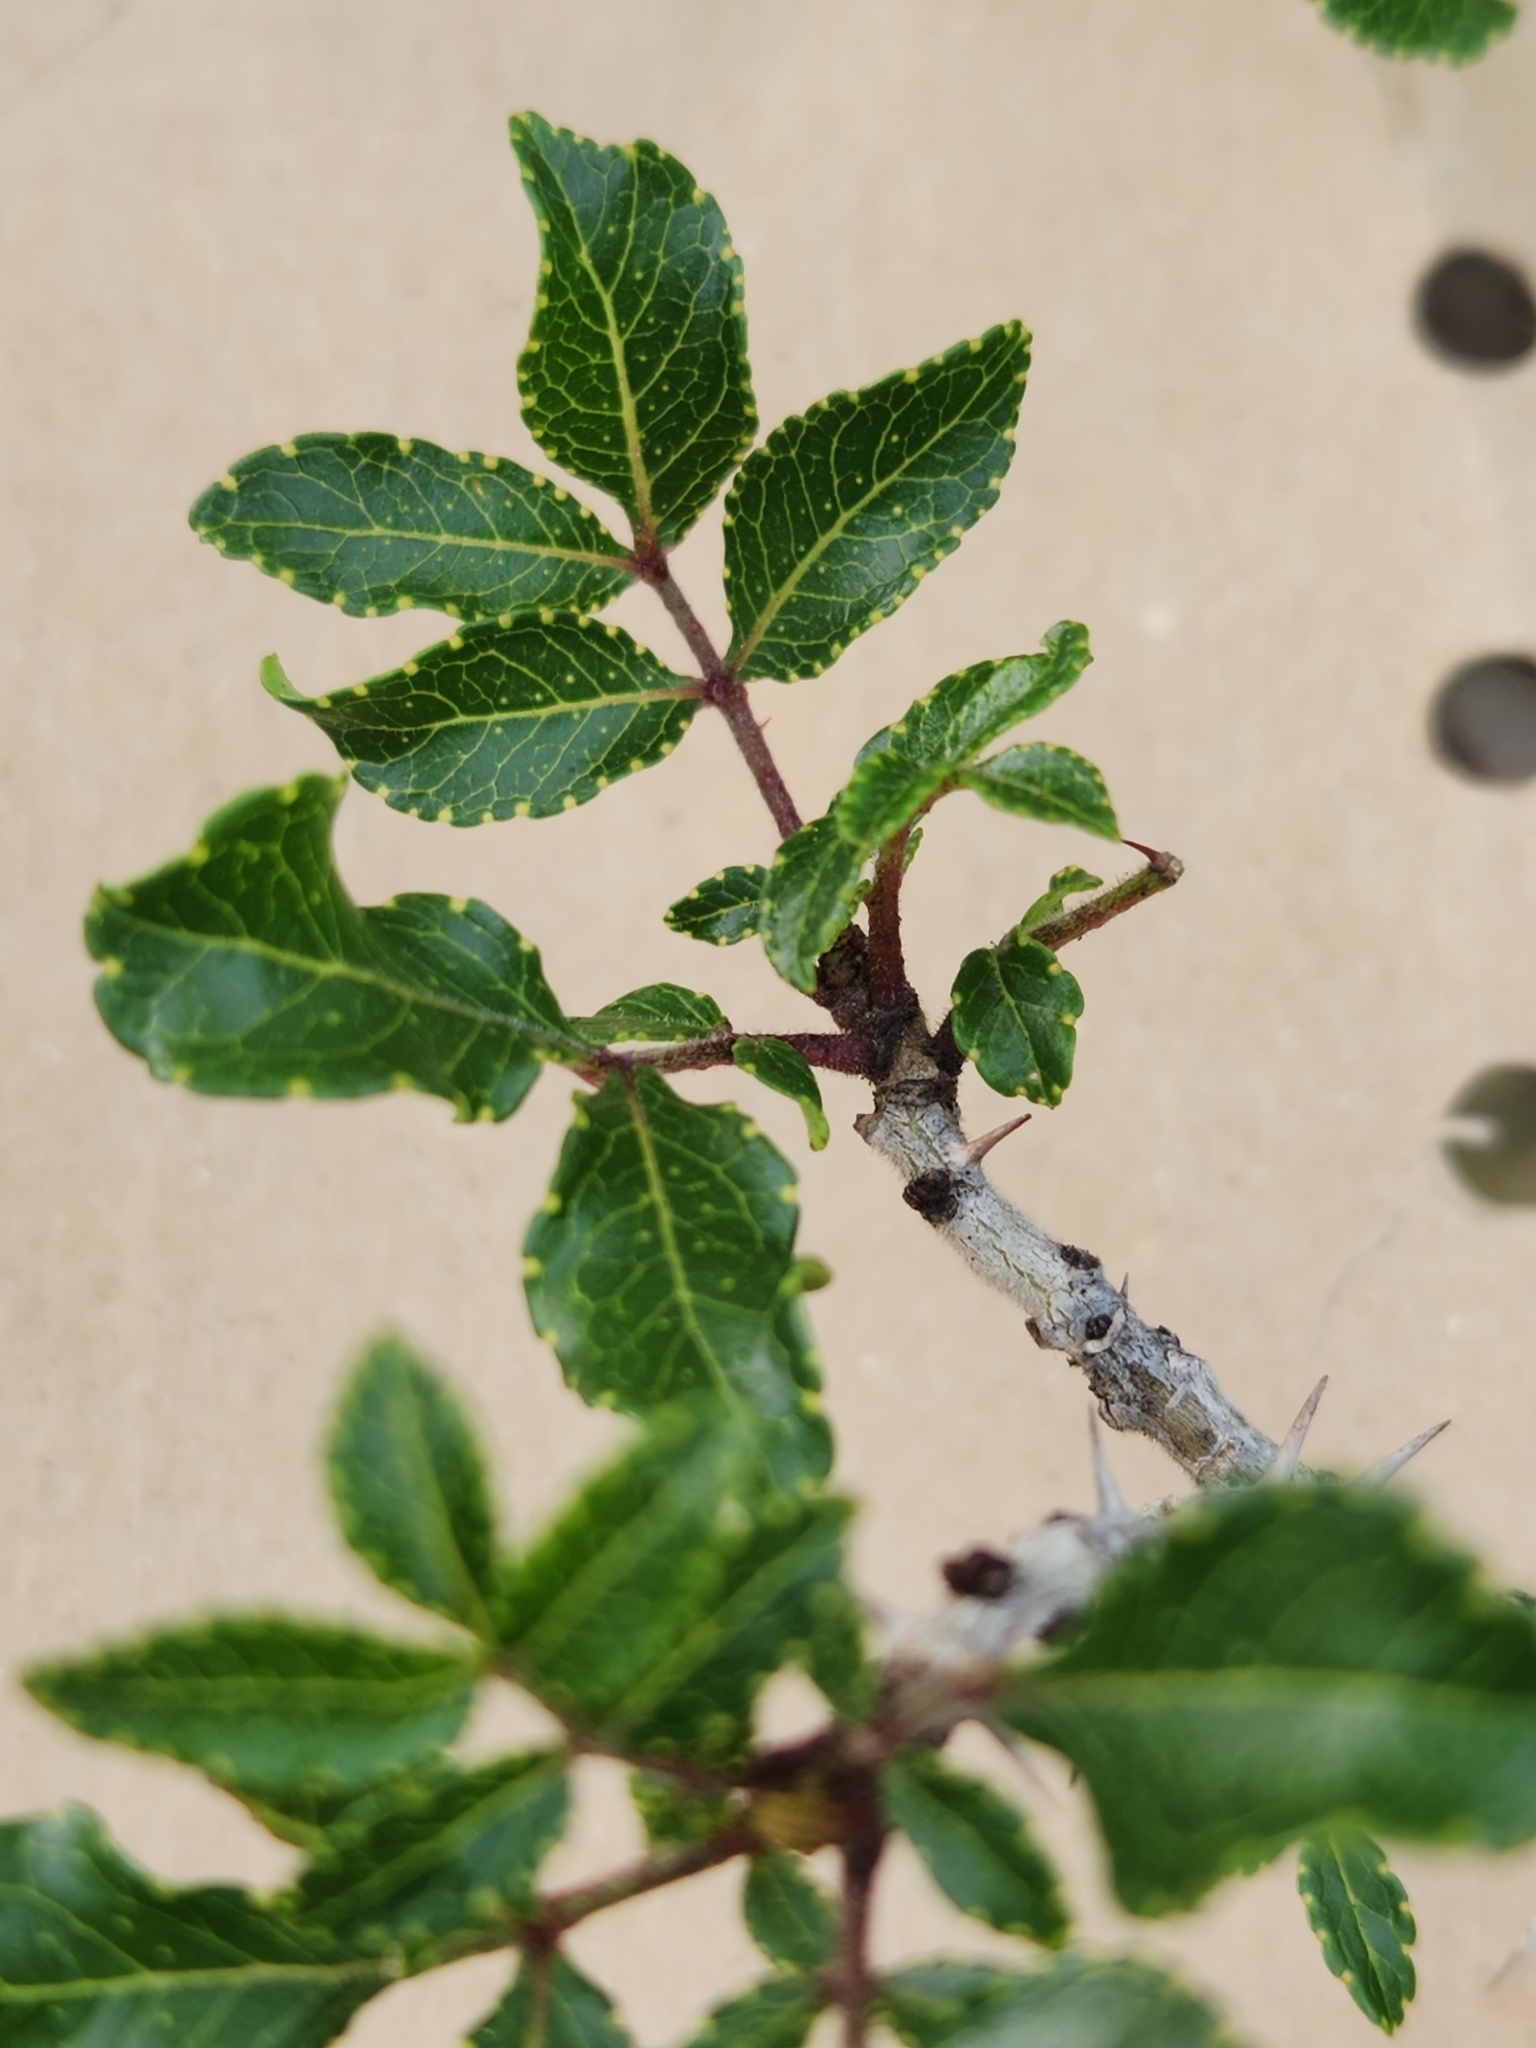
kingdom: Plantae
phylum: Tracheophyta
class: Magnoliopsida
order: Sapindales
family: Rutaceae
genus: Zanthoxylum
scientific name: Zanthoxylum clava-herculis
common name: Hercules'-club
